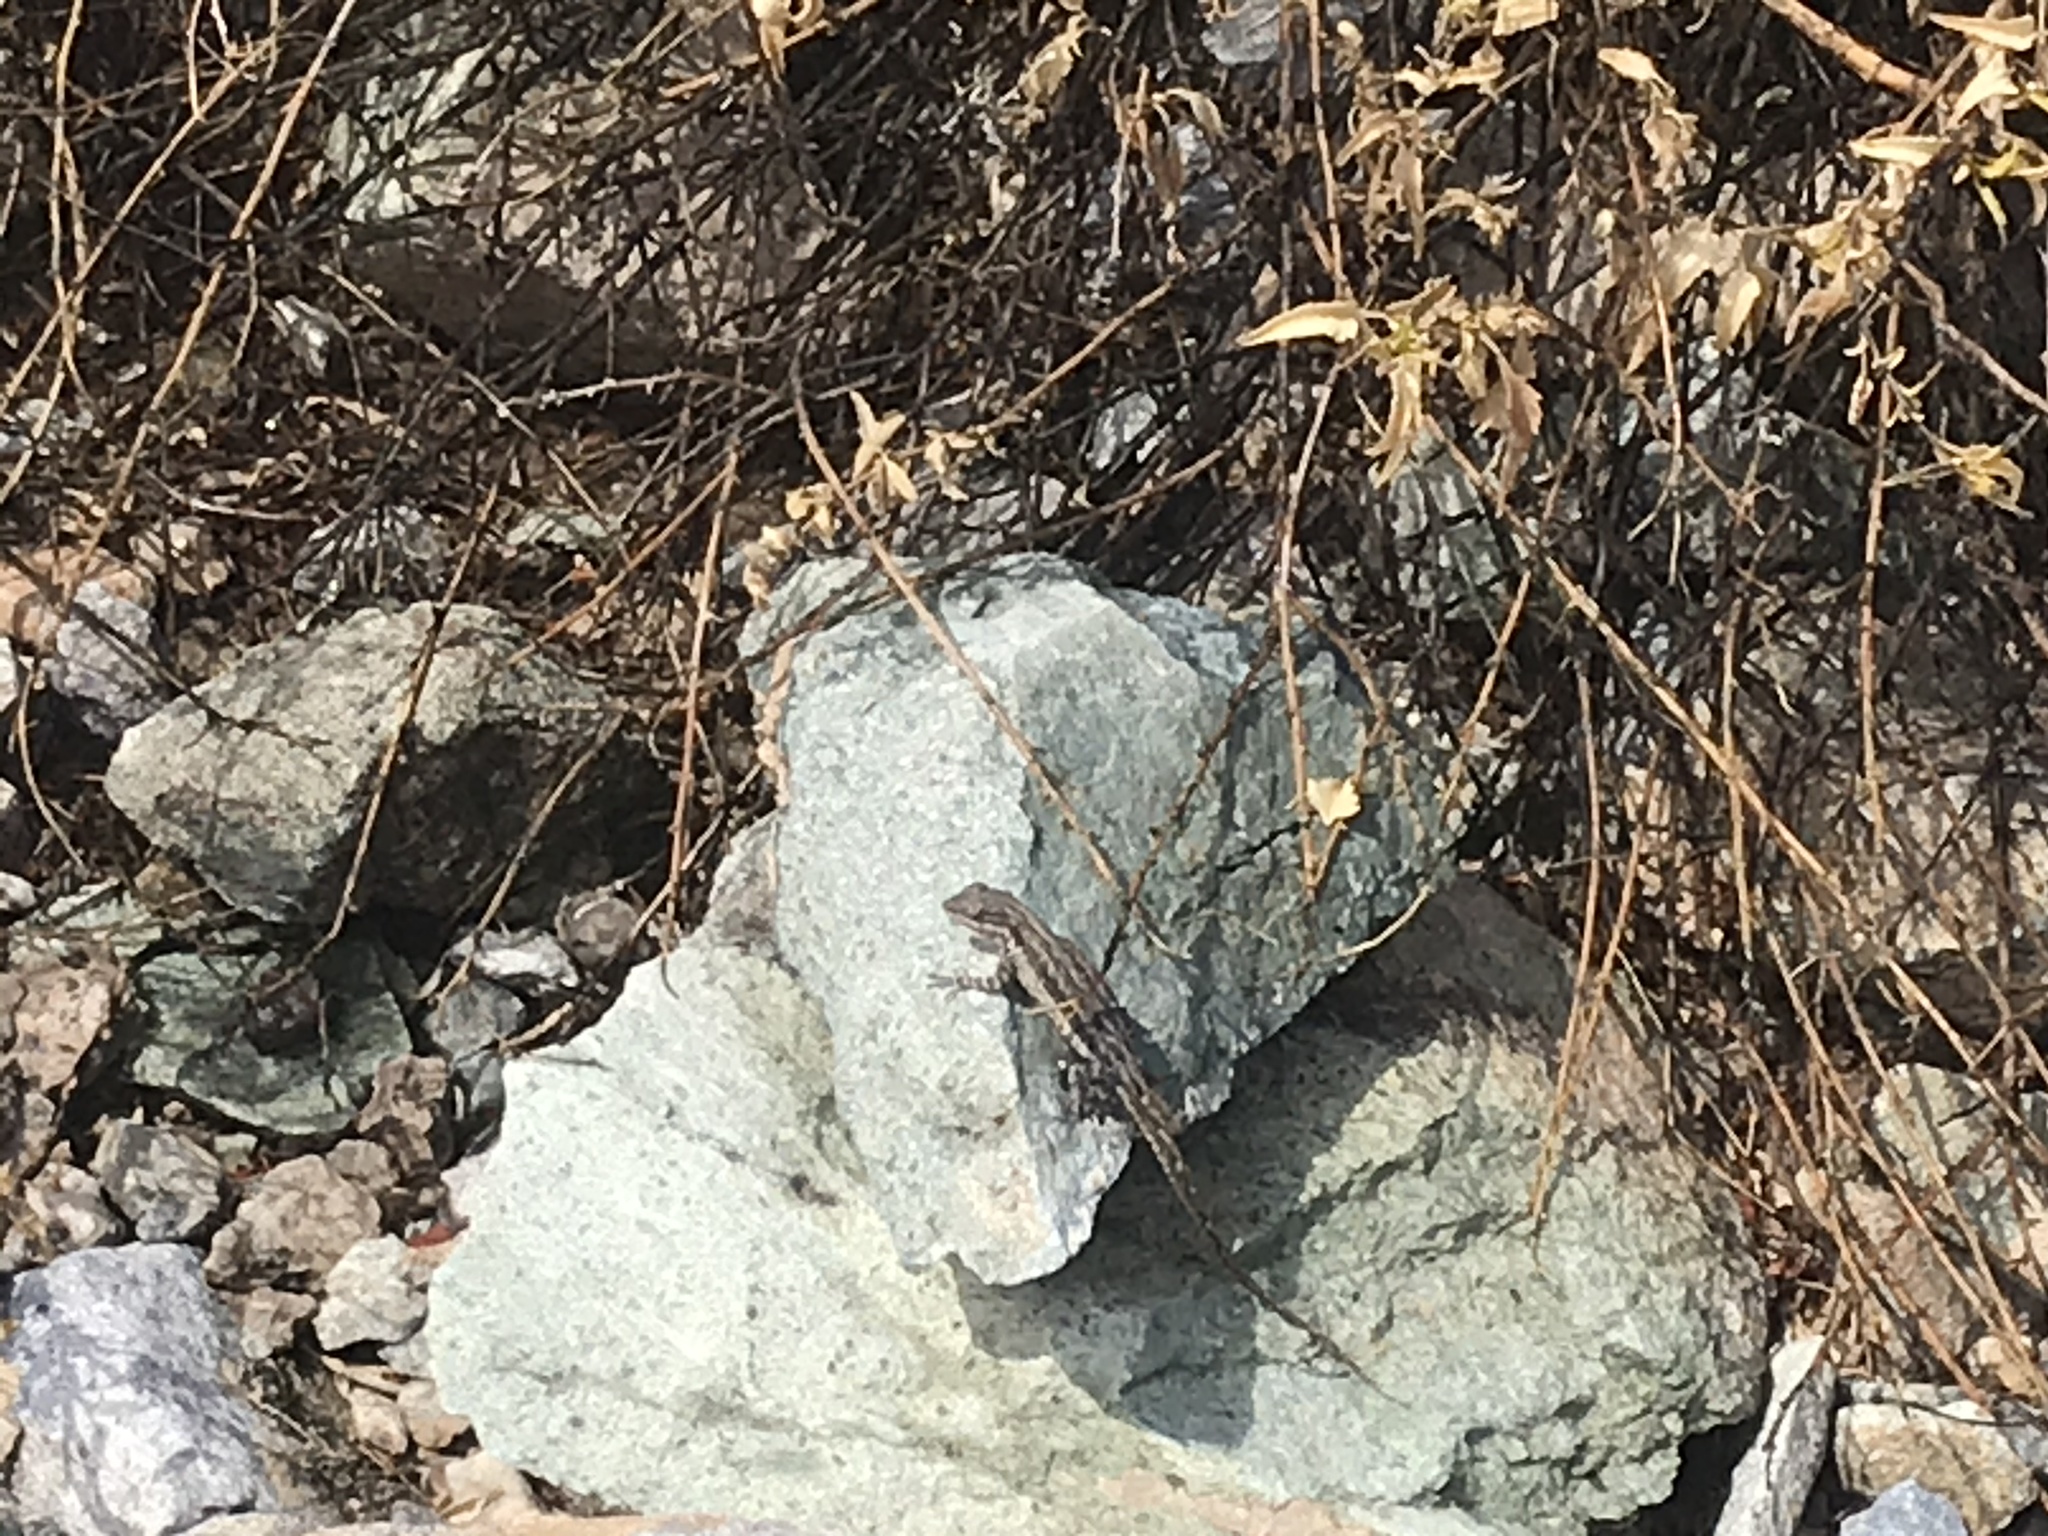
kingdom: Animalia
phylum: Chordata
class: Squamata
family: Phrynosomatidae
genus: Urosaurus
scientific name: Urosaurus ornatus
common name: Ornate tree lizard
